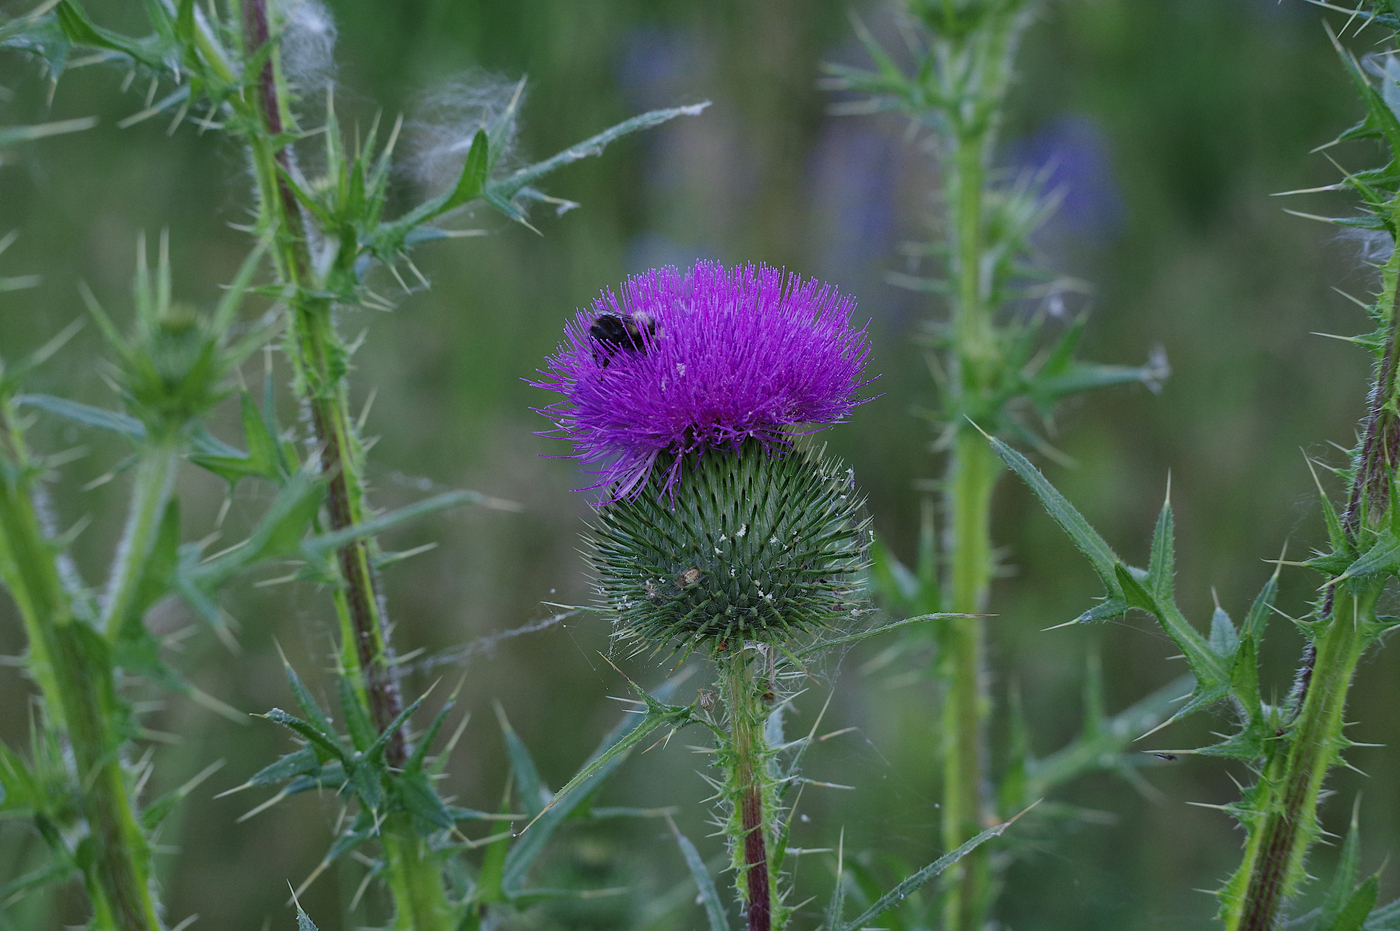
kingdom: Plantae
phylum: Tracheophyta
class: Magnoliopsida
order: Asterales
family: Asteraceae
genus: Cirsium
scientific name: Cirsium vulgare
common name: Bull thistle
